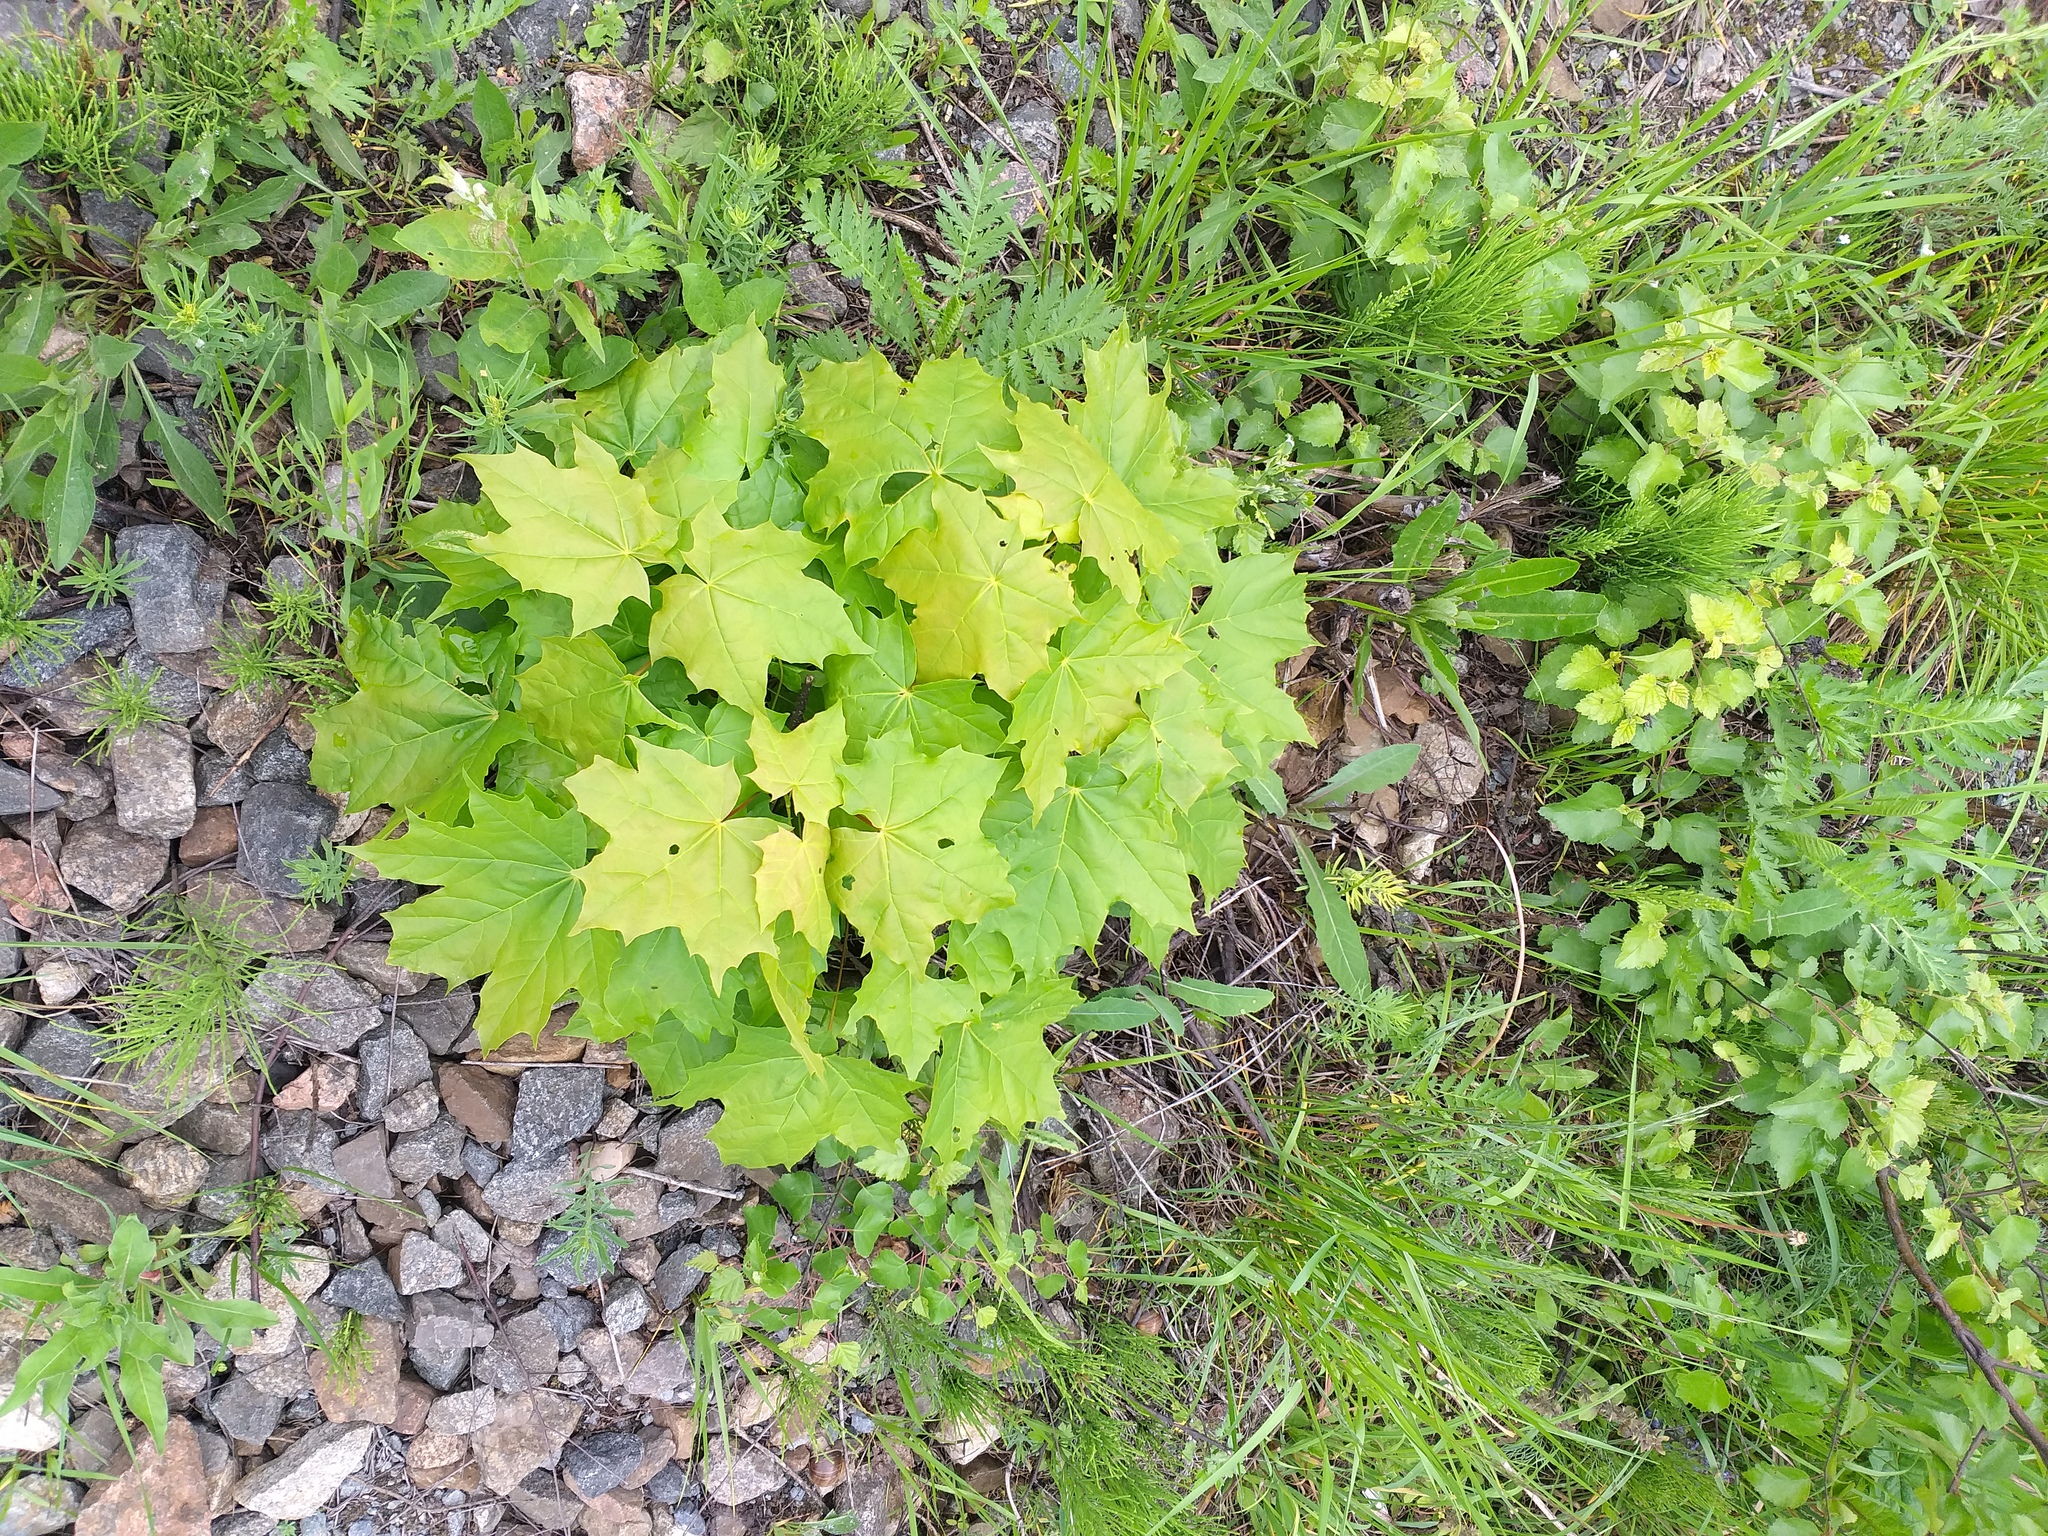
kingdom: Plantae
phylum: Tracheophyta
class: Magnoliopsida
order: Sapindales
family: Sapindaceae
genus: Acer
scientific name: Acer platanoides
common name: Norway maple
